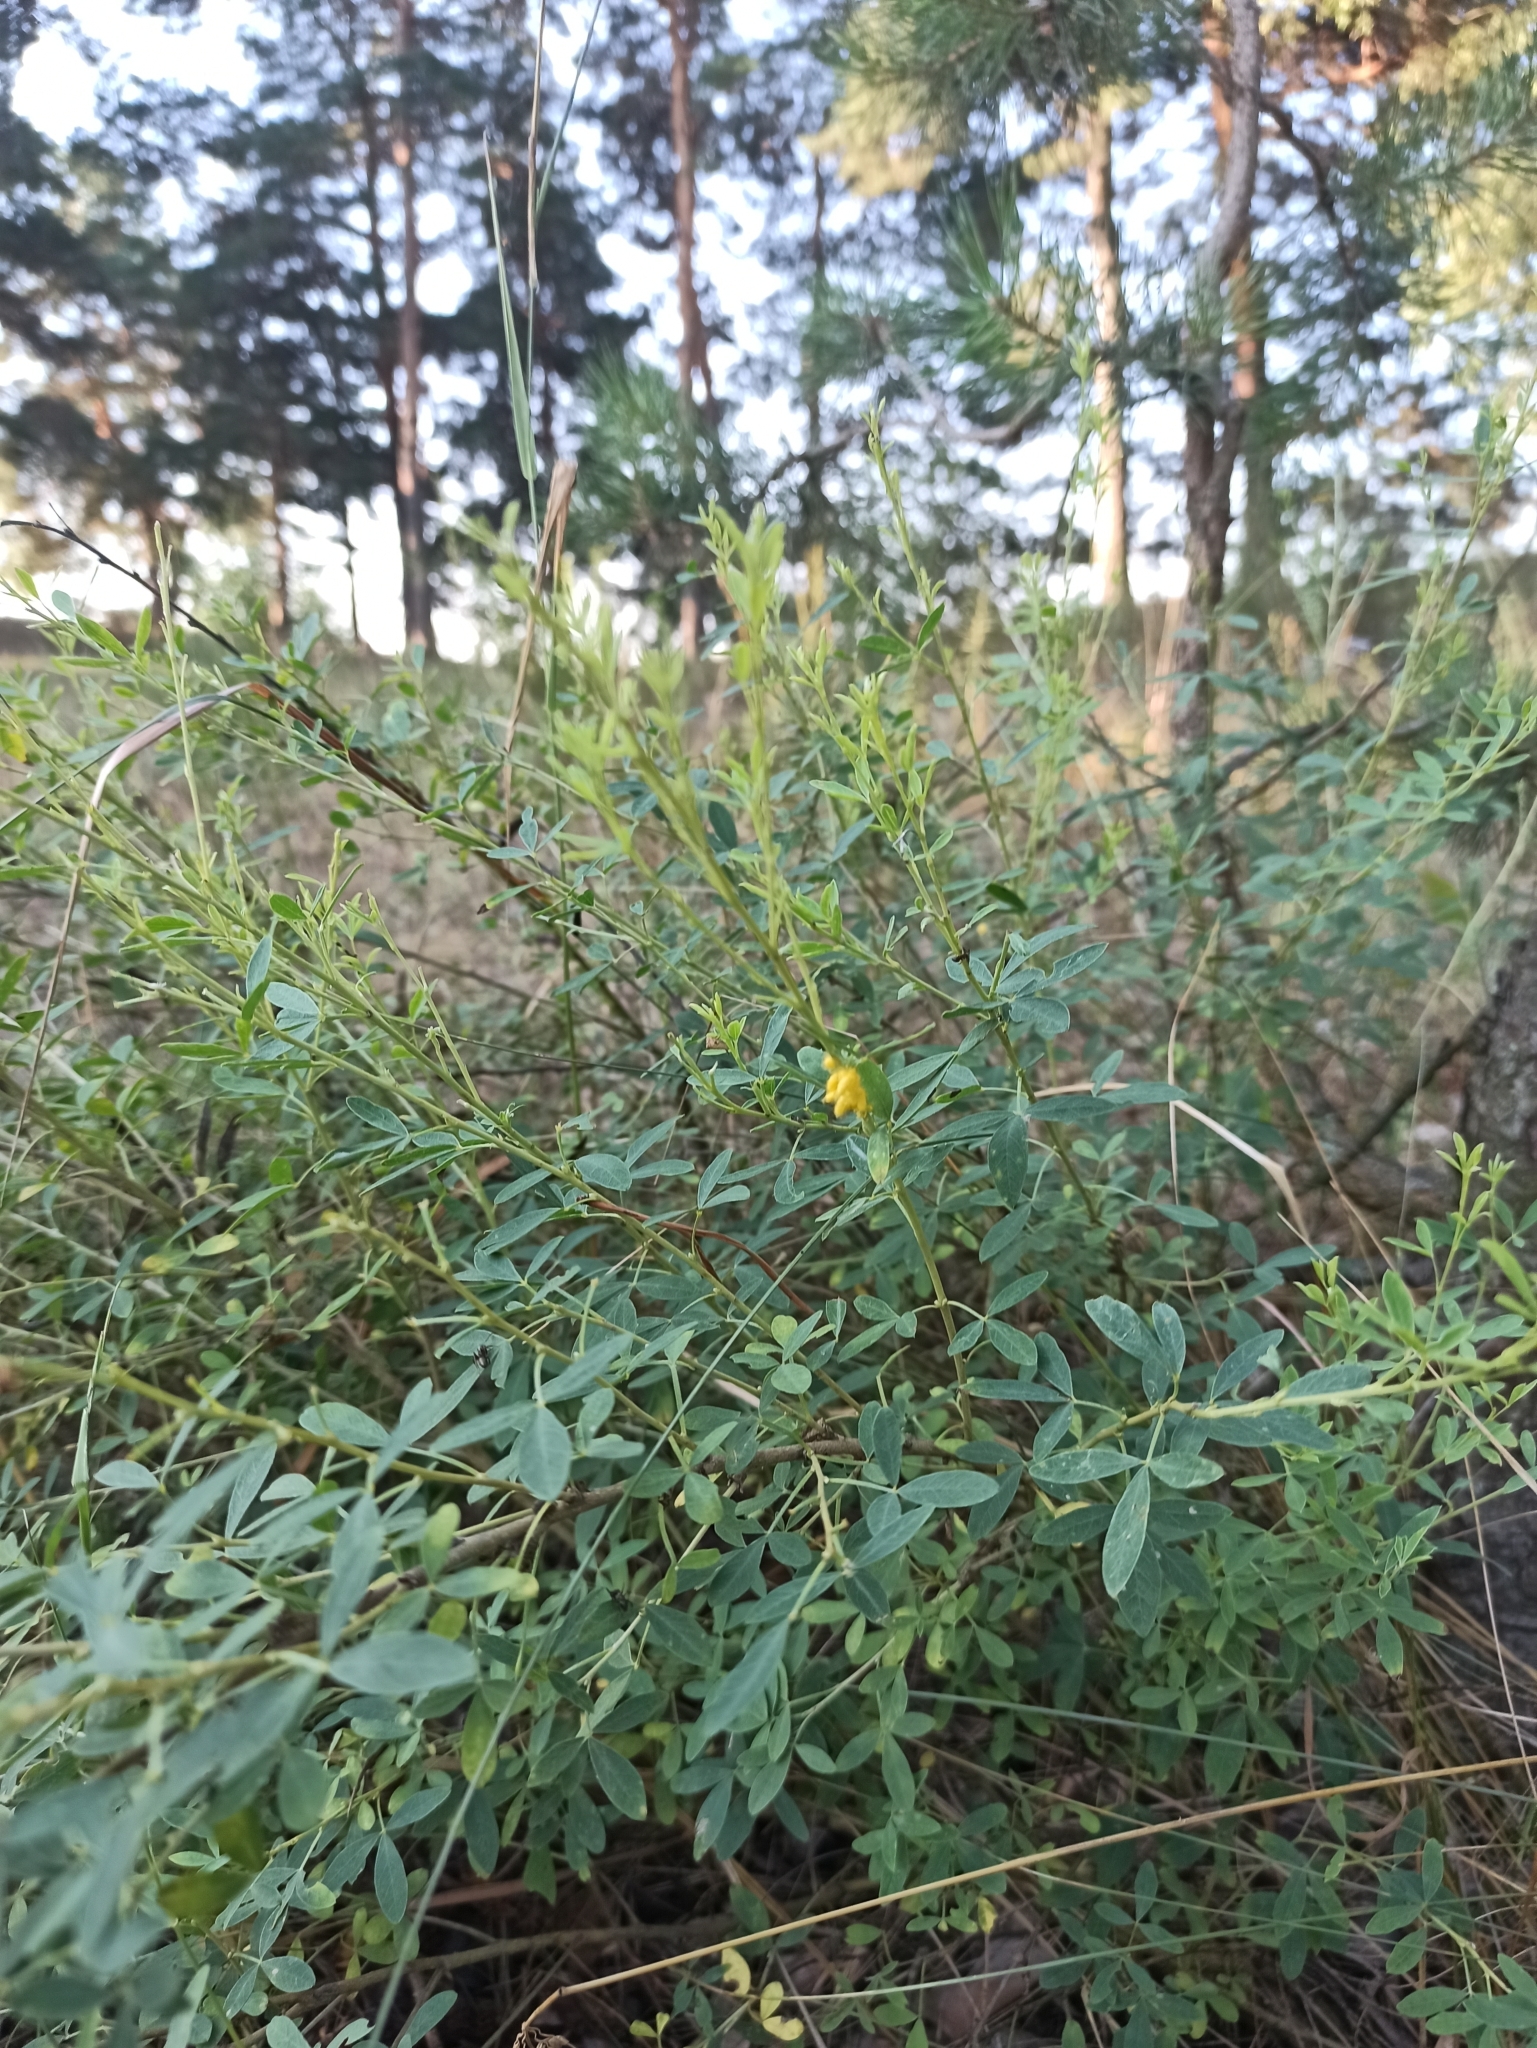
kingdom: Plantae
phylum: Tracheophyta
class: Magnoliopsida
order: Fabales
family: Fabaceae
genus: Chamaecytisus
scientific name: Chamaecytisus ruthenicus
